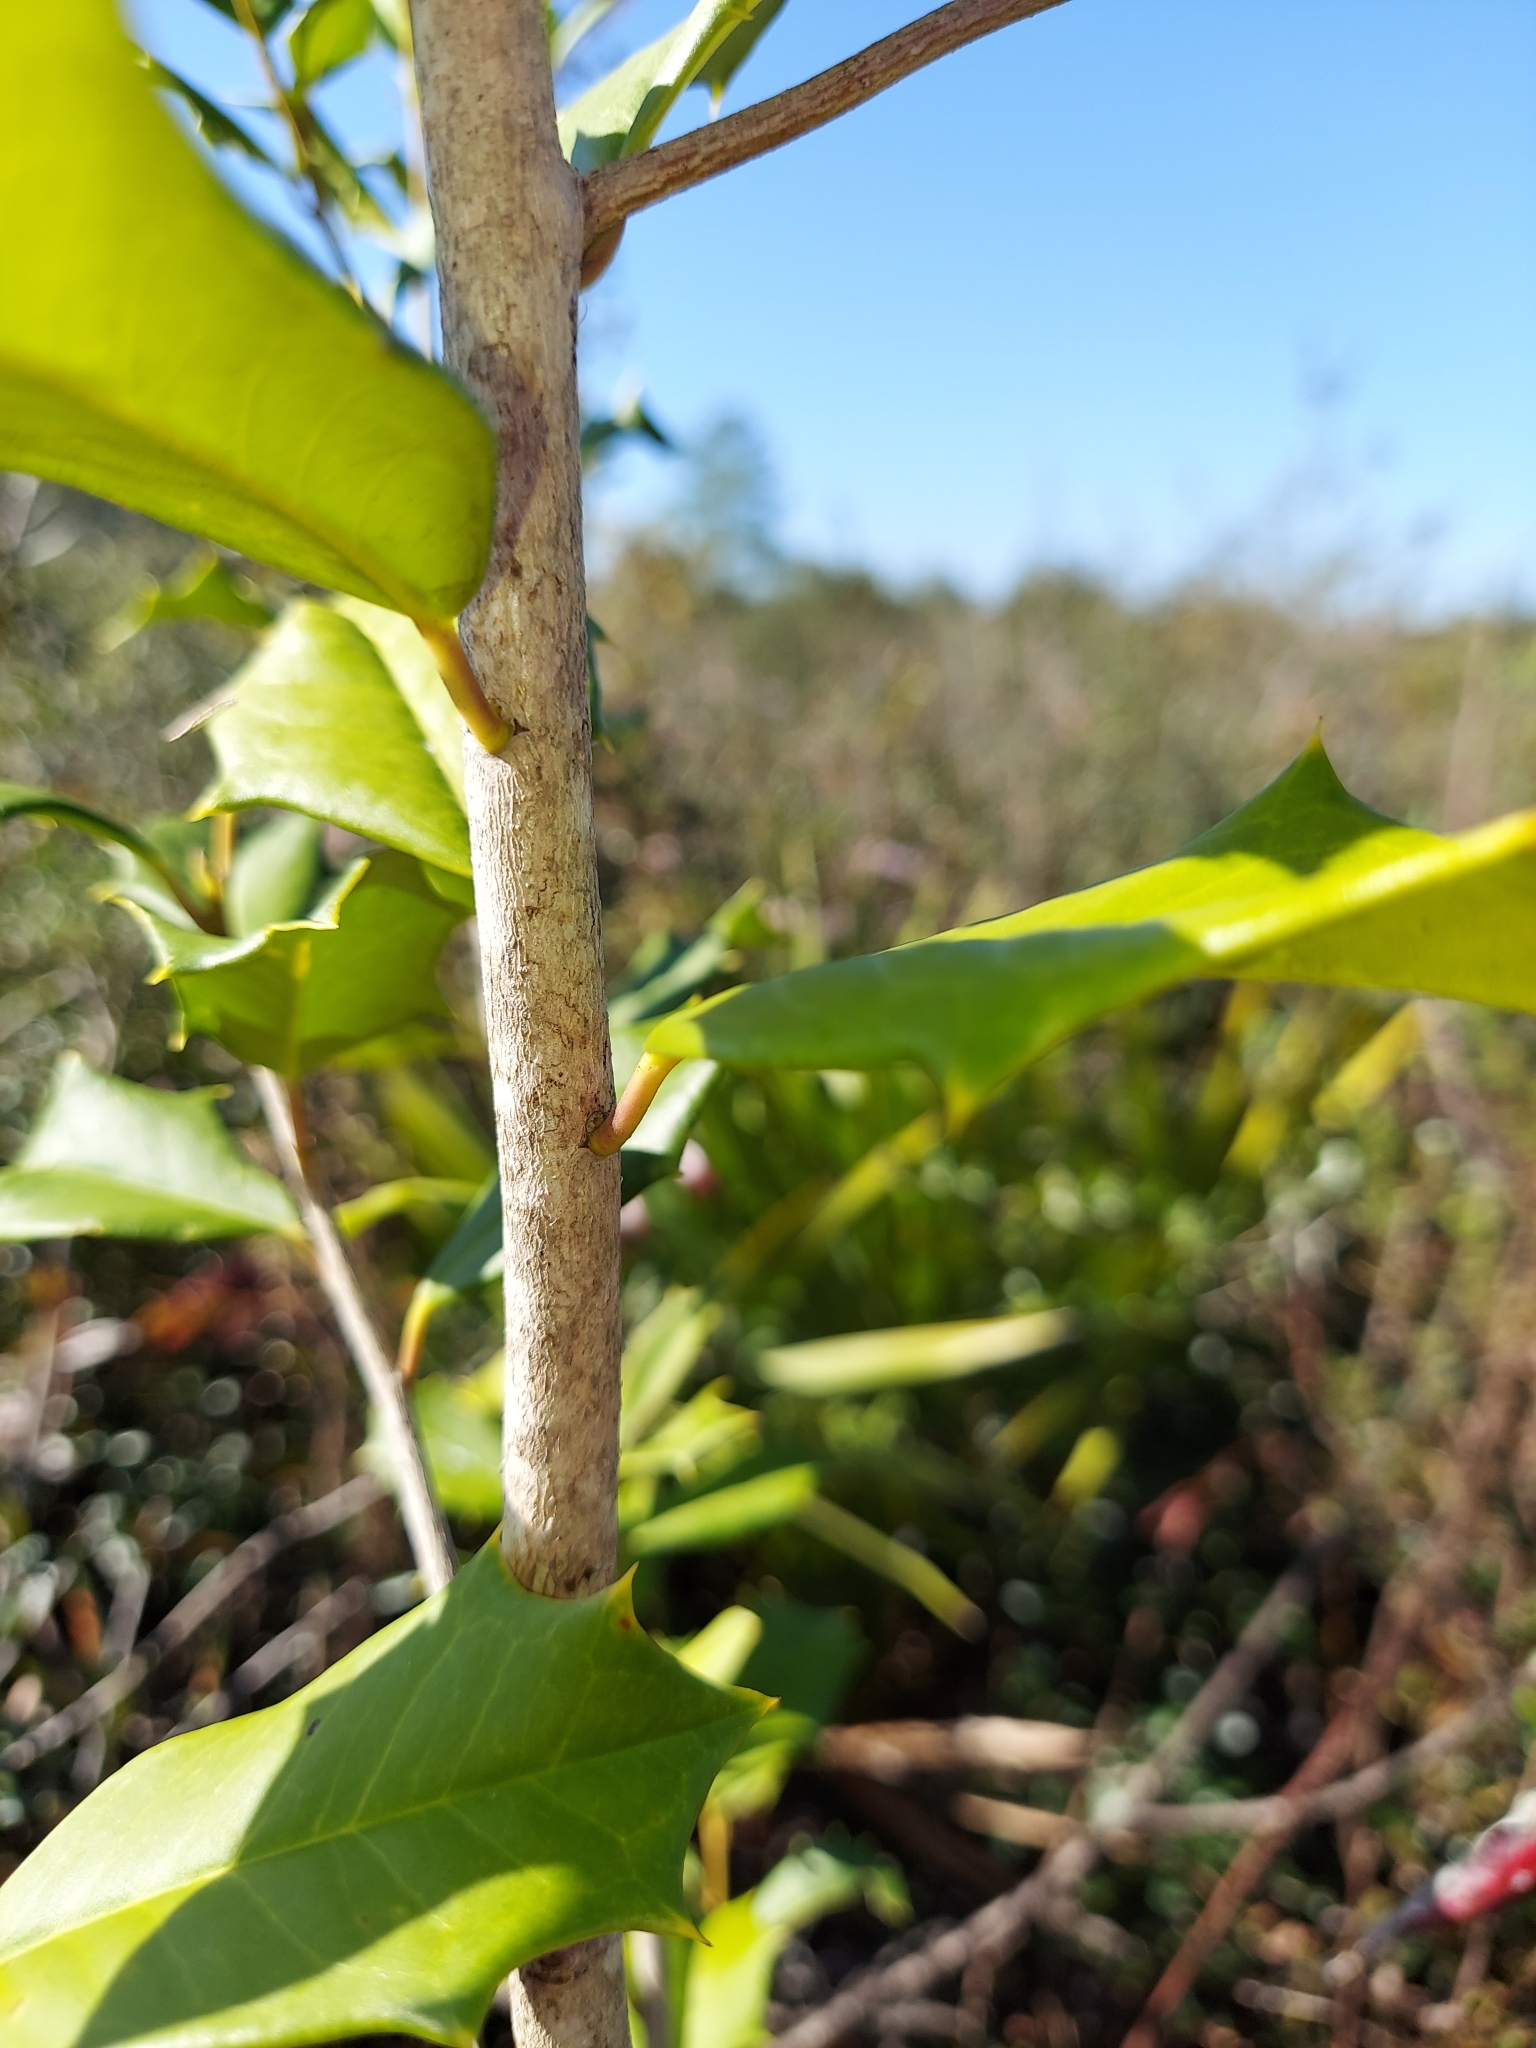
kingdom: Plantae
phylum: Tracheophyta
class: Magnoliopsida
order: Aquifoliales
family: Aquifoliaceae
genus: Ilex
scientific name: Ilex opaca
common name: American holly
